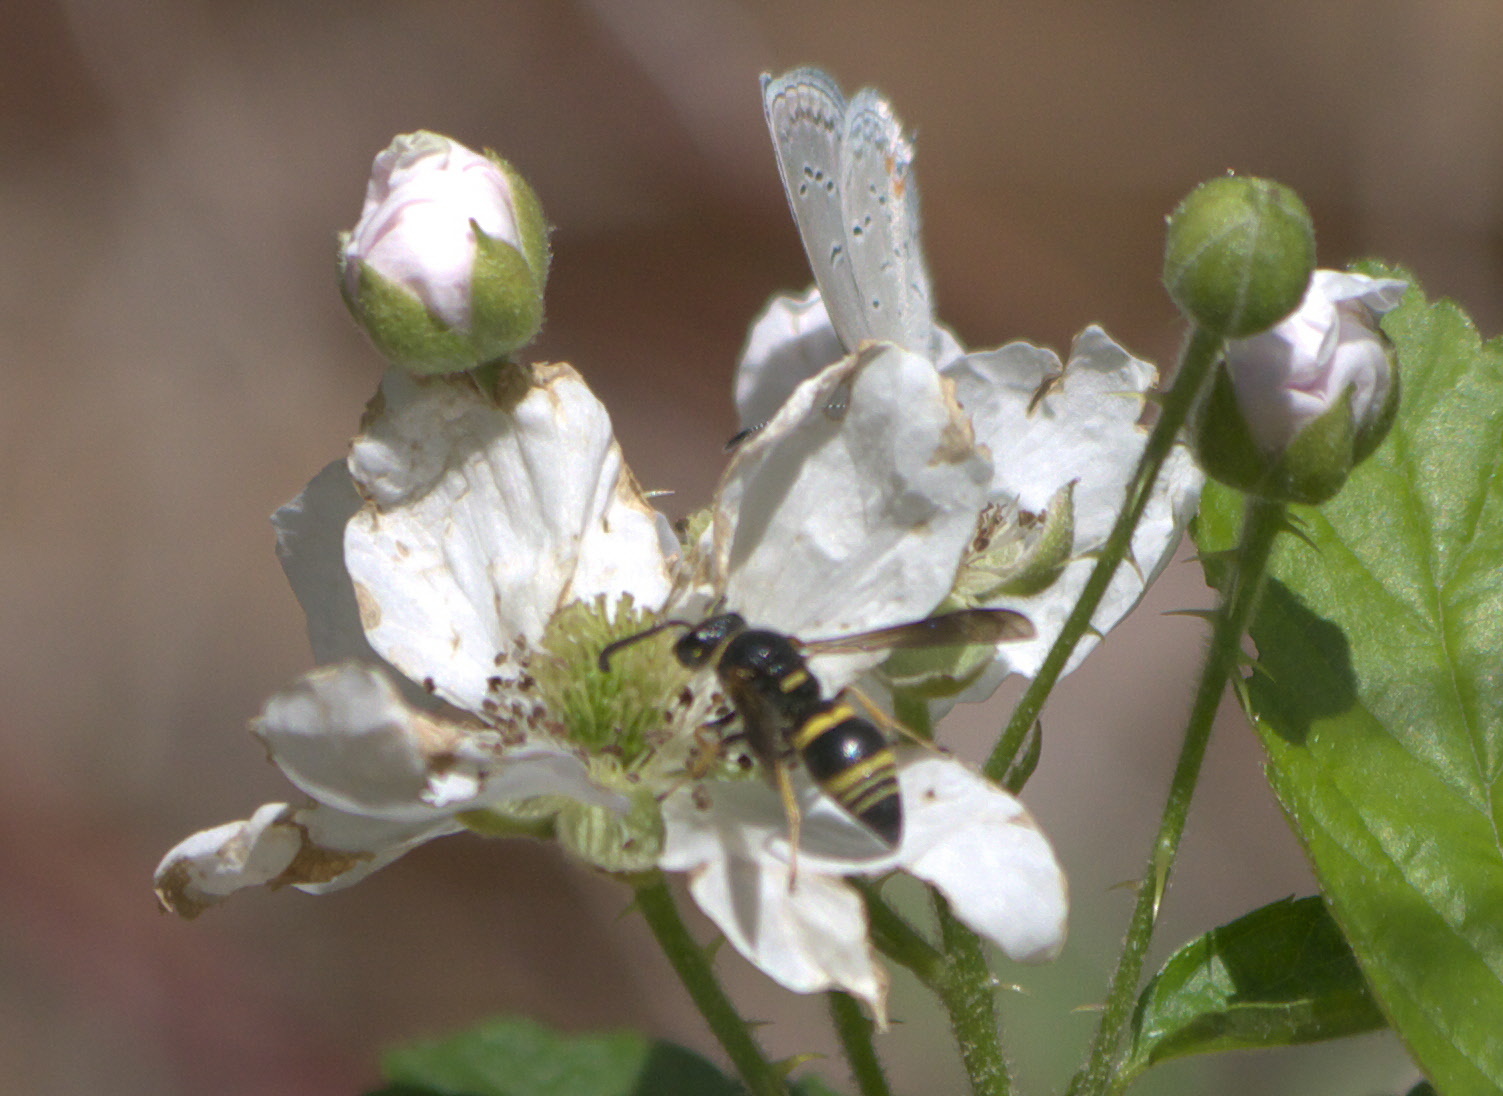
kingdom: Animalia
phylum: Arthropoda
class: Insecta
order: Hymenoptera
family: Eumenidae
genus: Euodynerus
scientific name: Euodynerus foraminatus
